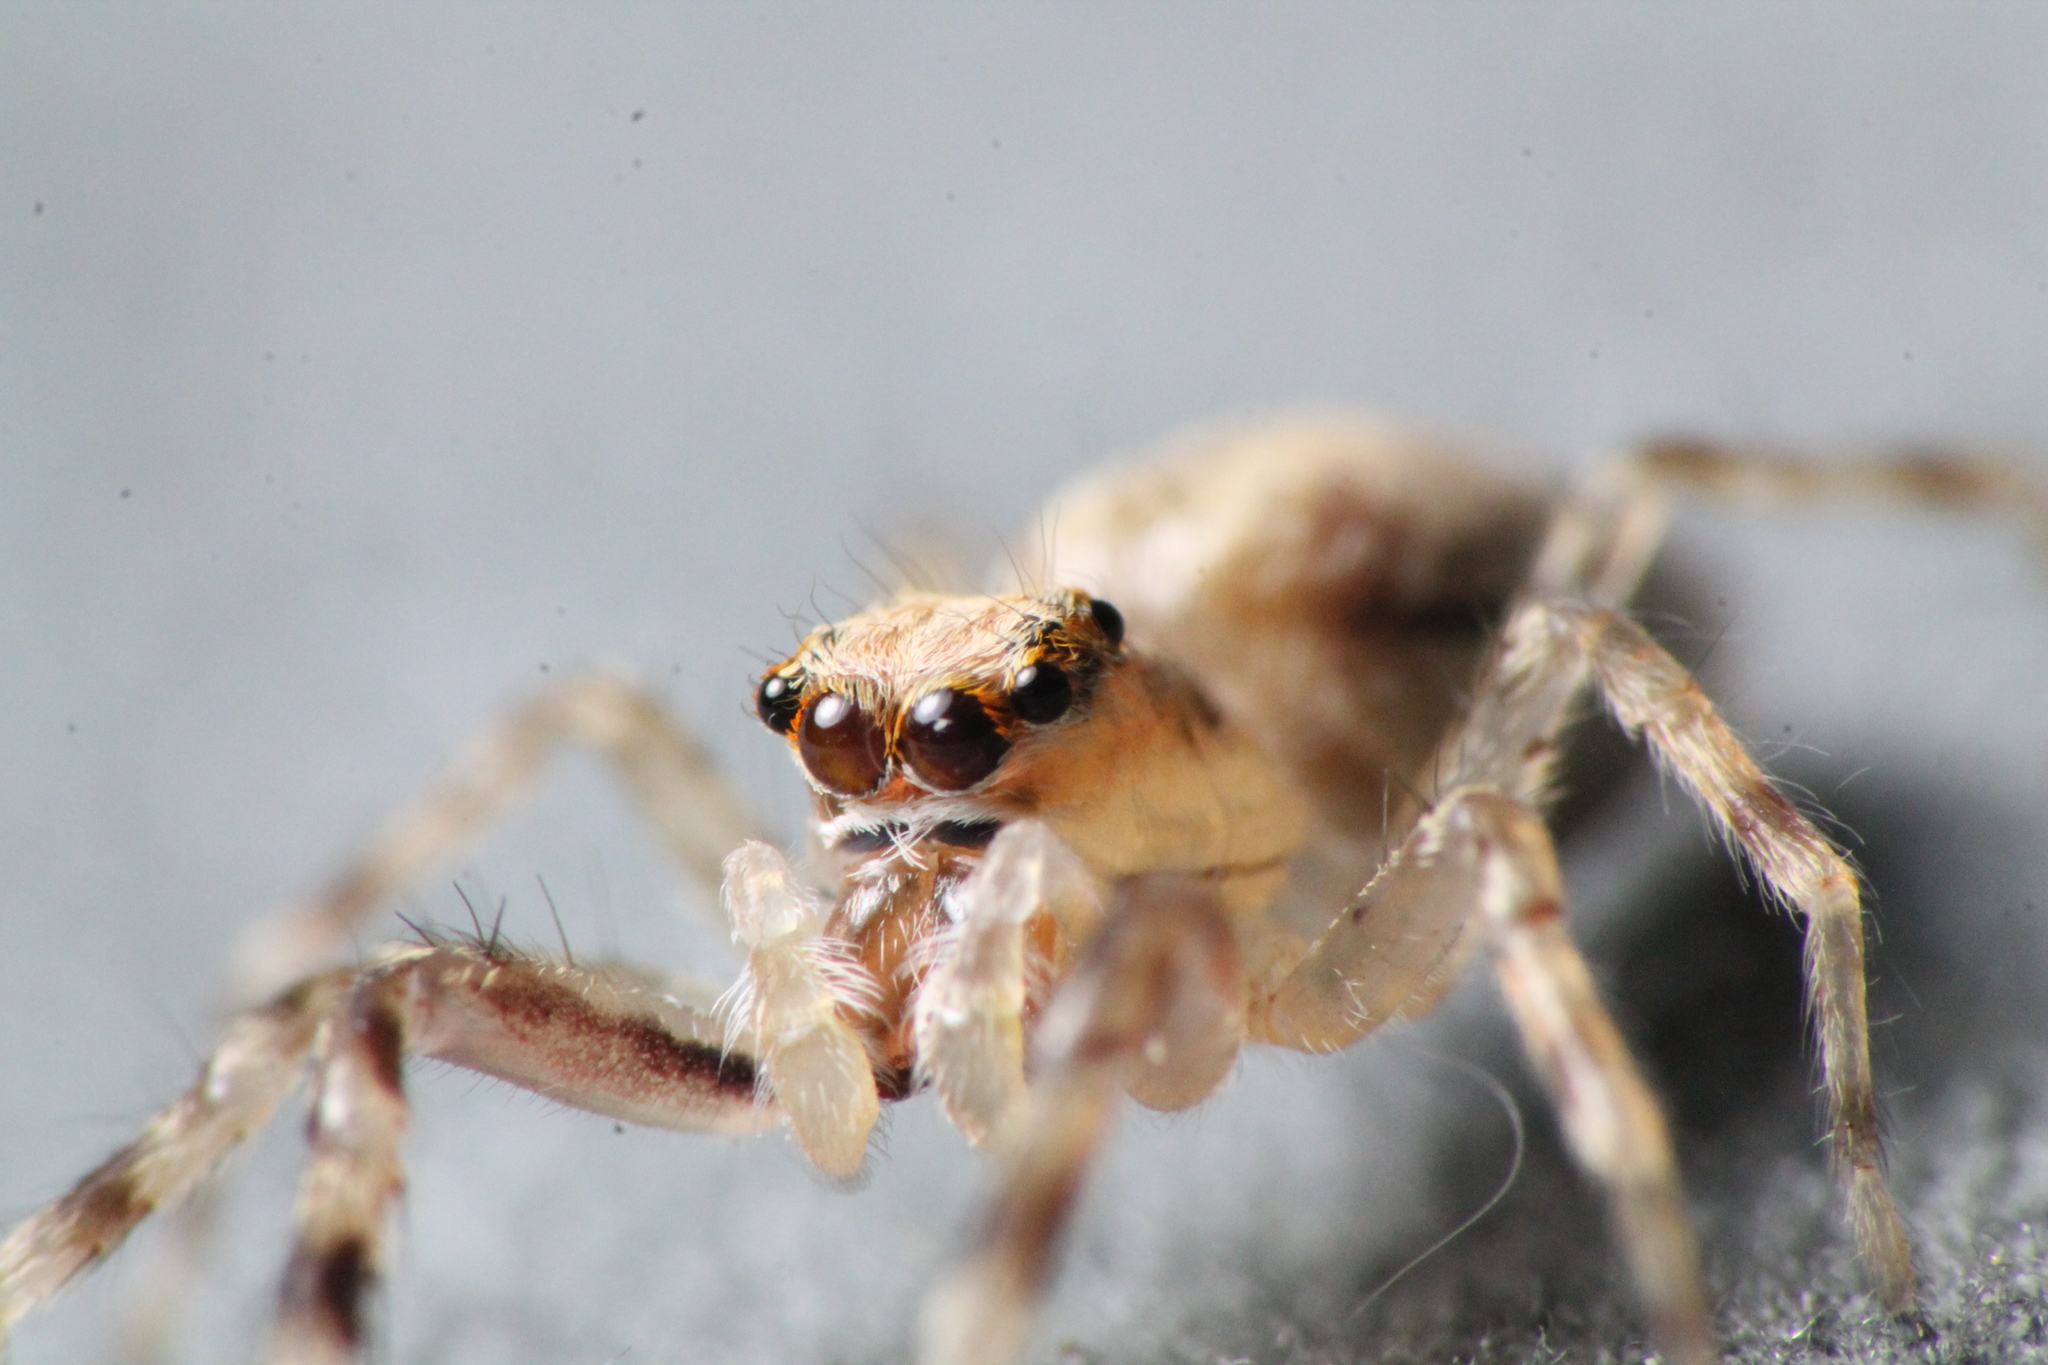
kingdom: Animalia
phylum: Arthropoda
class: Arachnida
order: Araneae
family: Salticidae
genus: Helpis
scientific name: Helpis minitabunda
